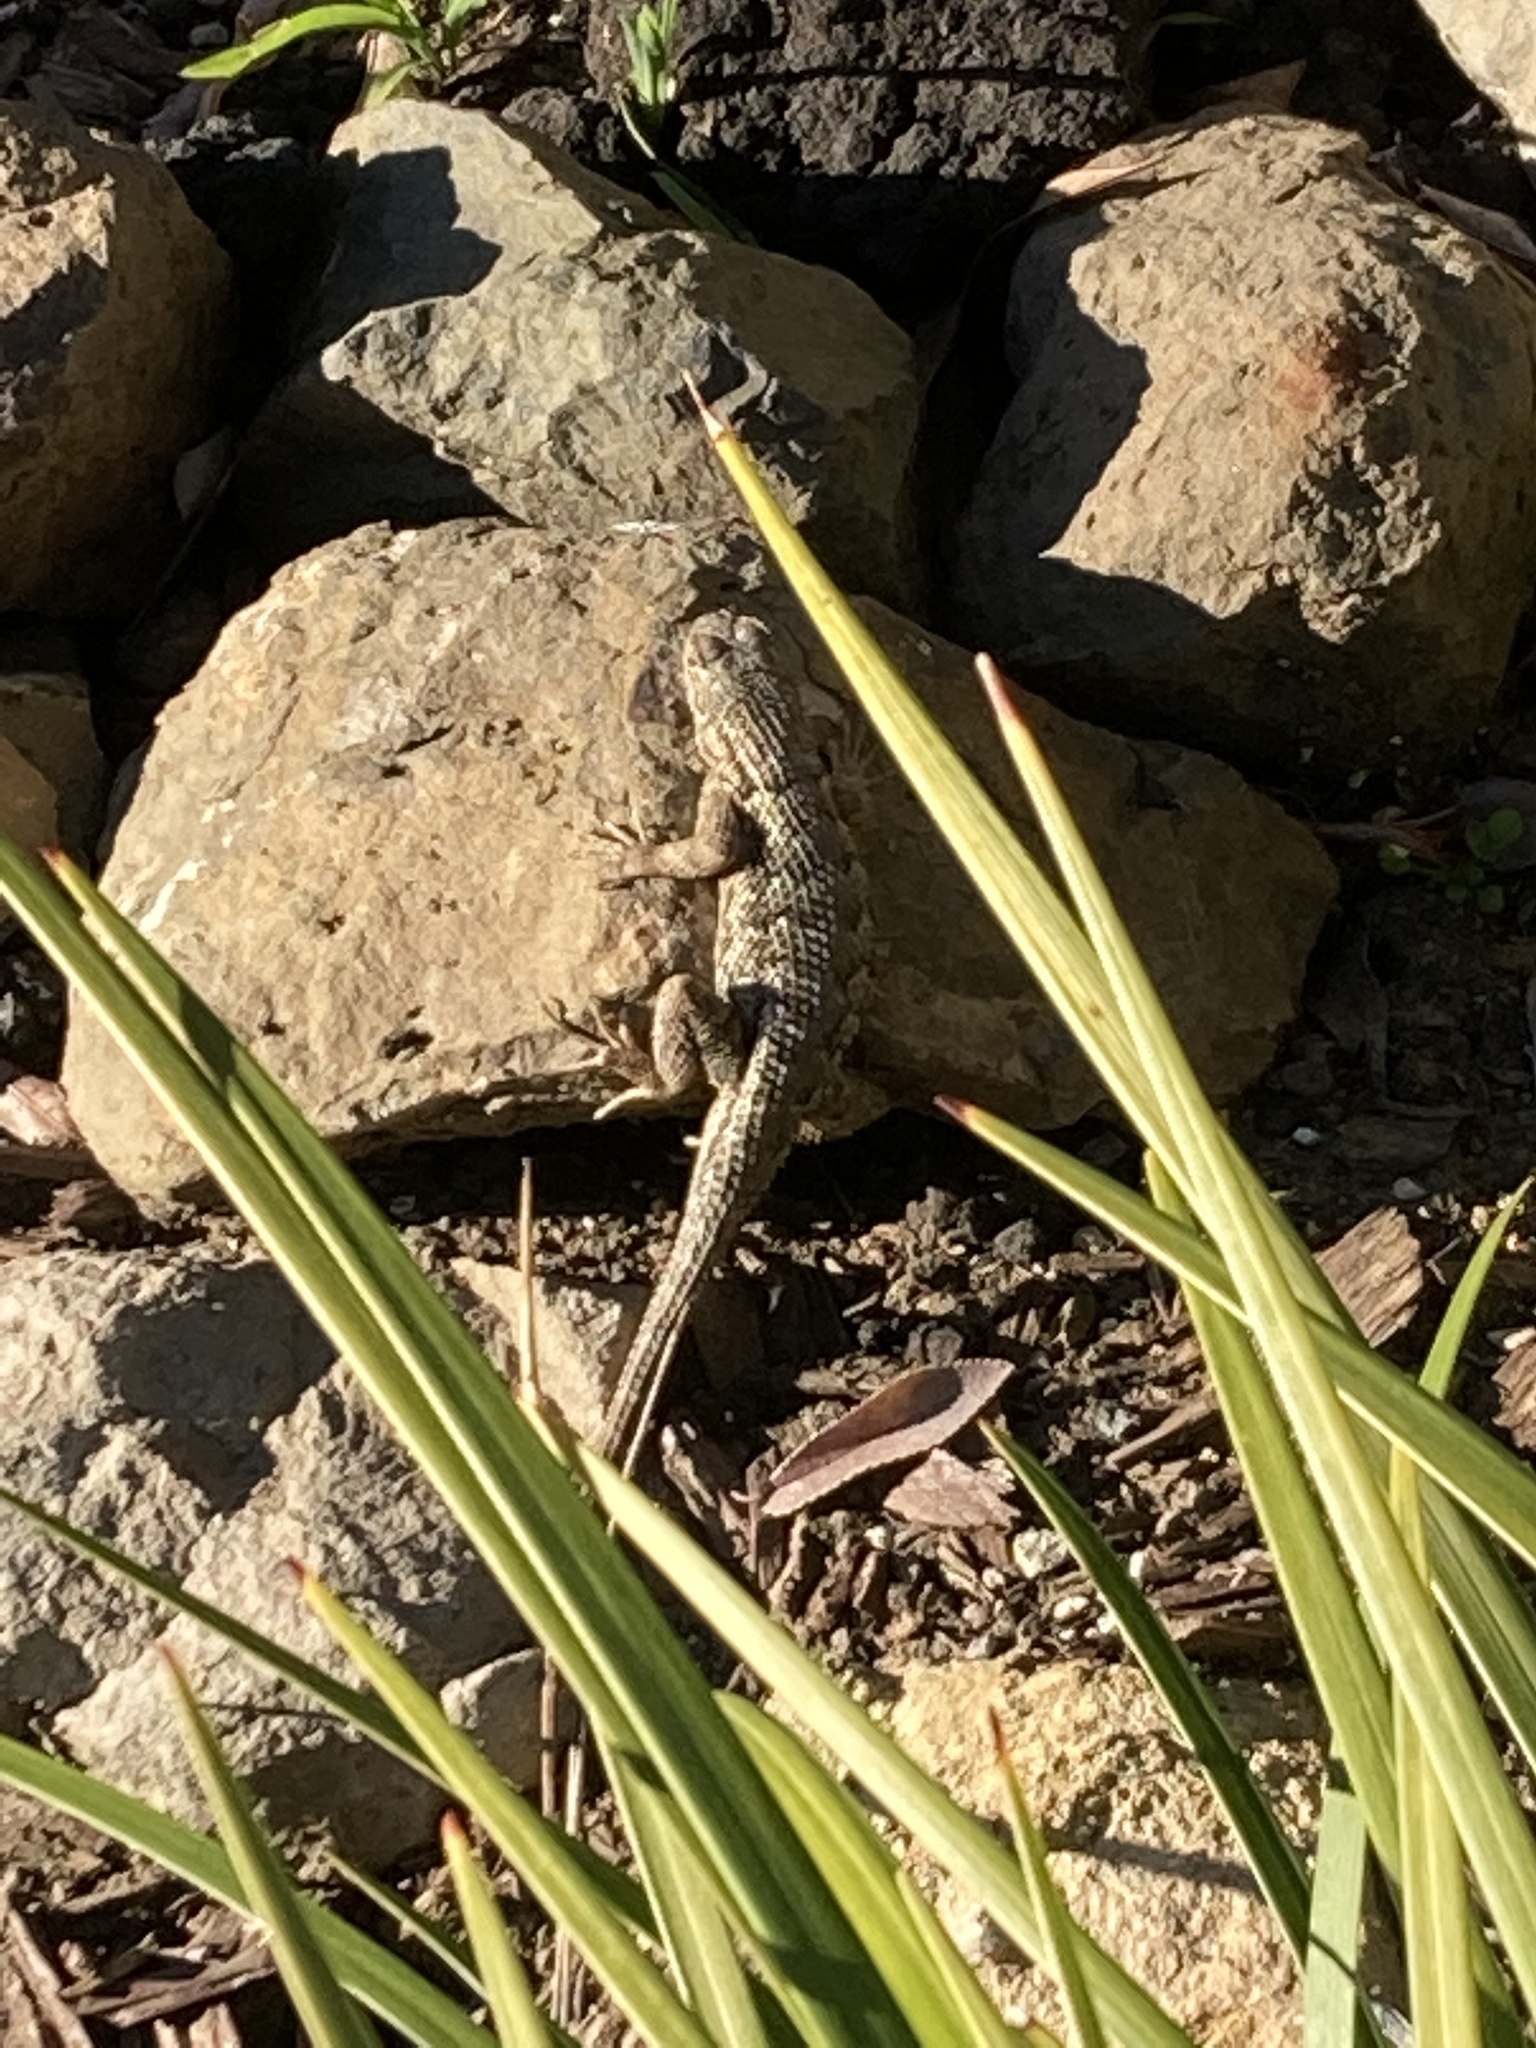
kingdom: Animalia
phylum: Chordata
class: Squamata
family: Phrynosomatidae
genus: Sceloporus
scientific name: Sceloporus occidentalis
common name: Western fence lizard
